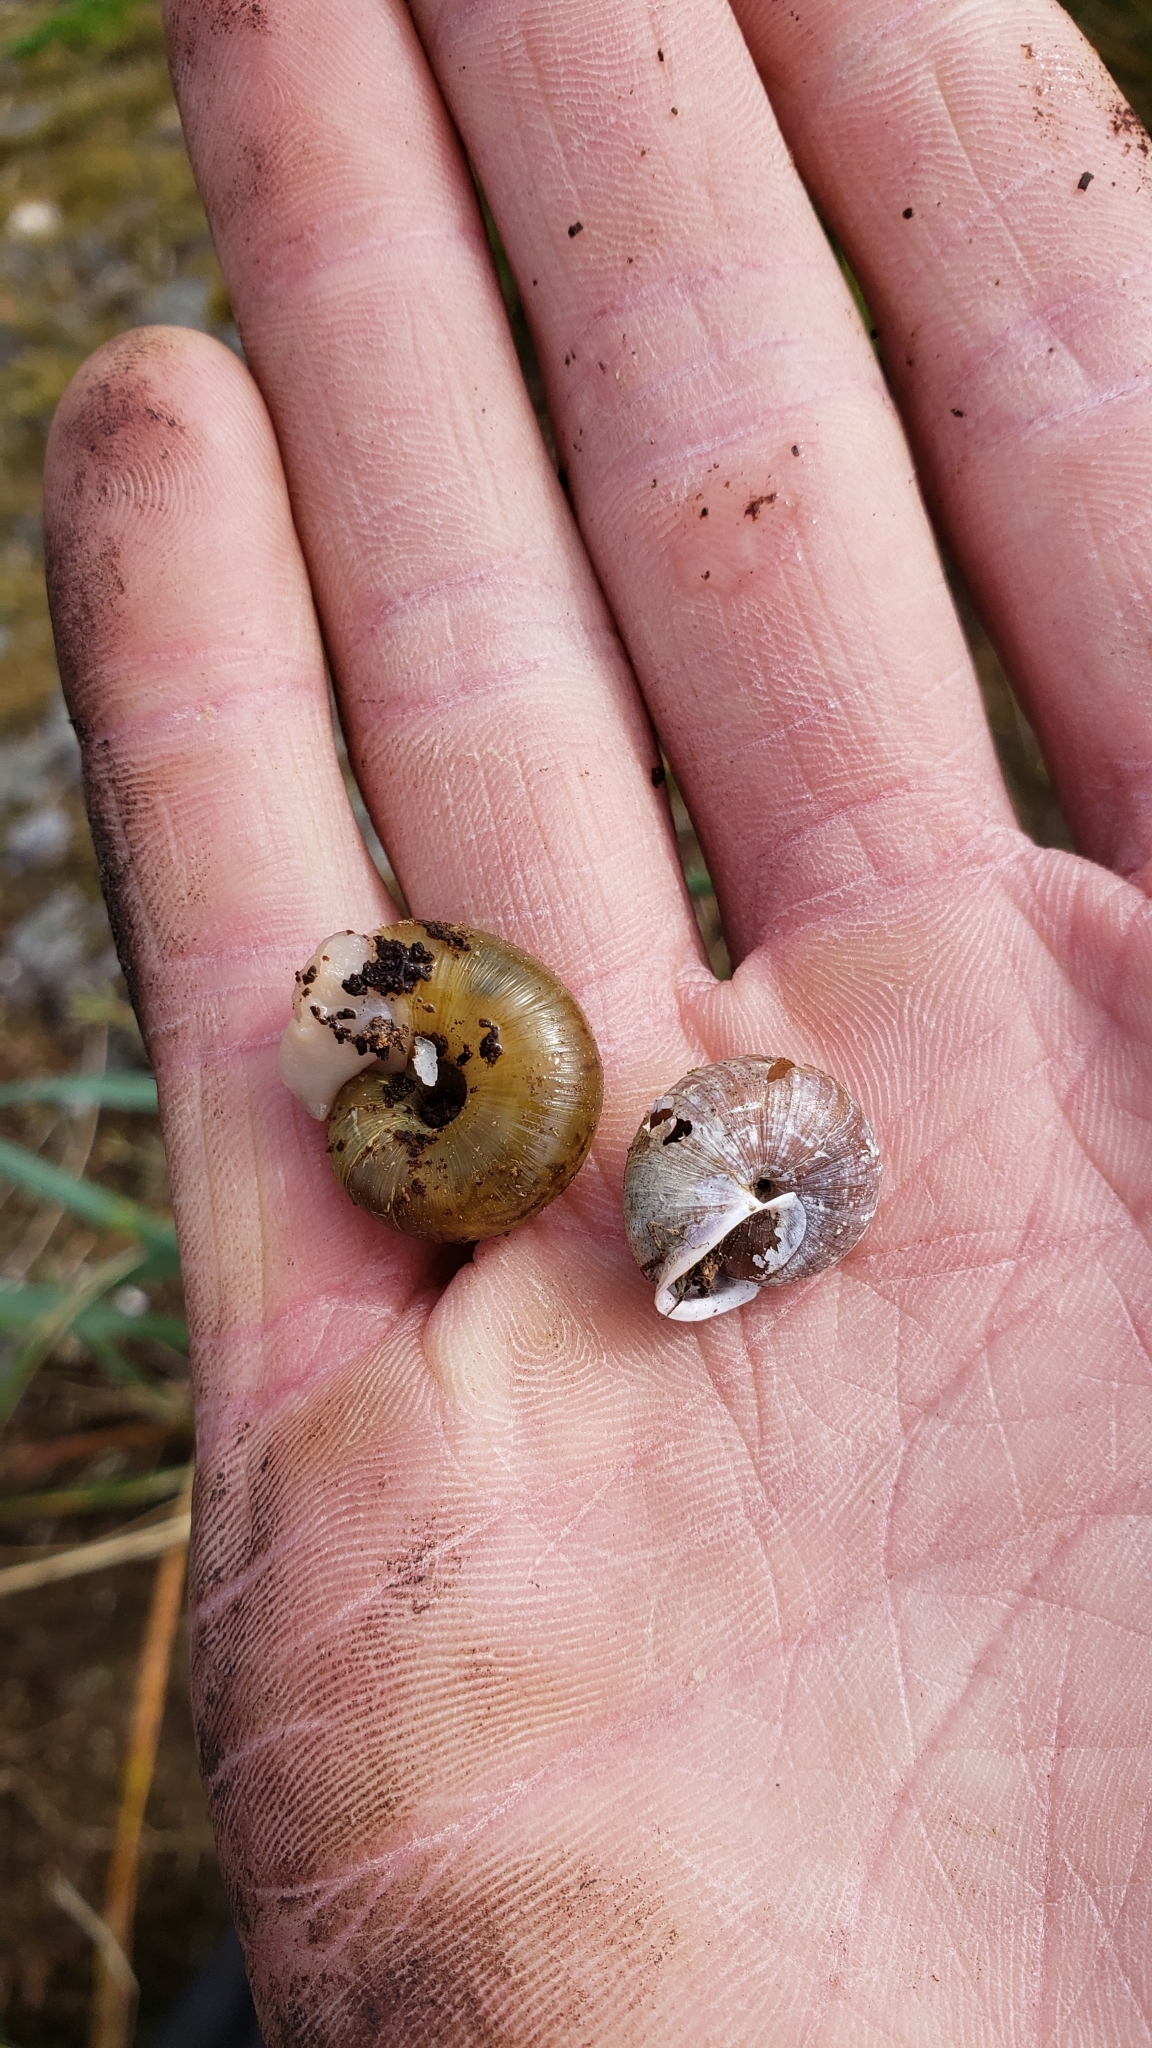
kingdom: Animalia
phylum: Mollusca
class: Gastropoda
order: Stylommatophora
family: Polygyridae
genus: Vespericola
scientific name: Vespericola columbianus
